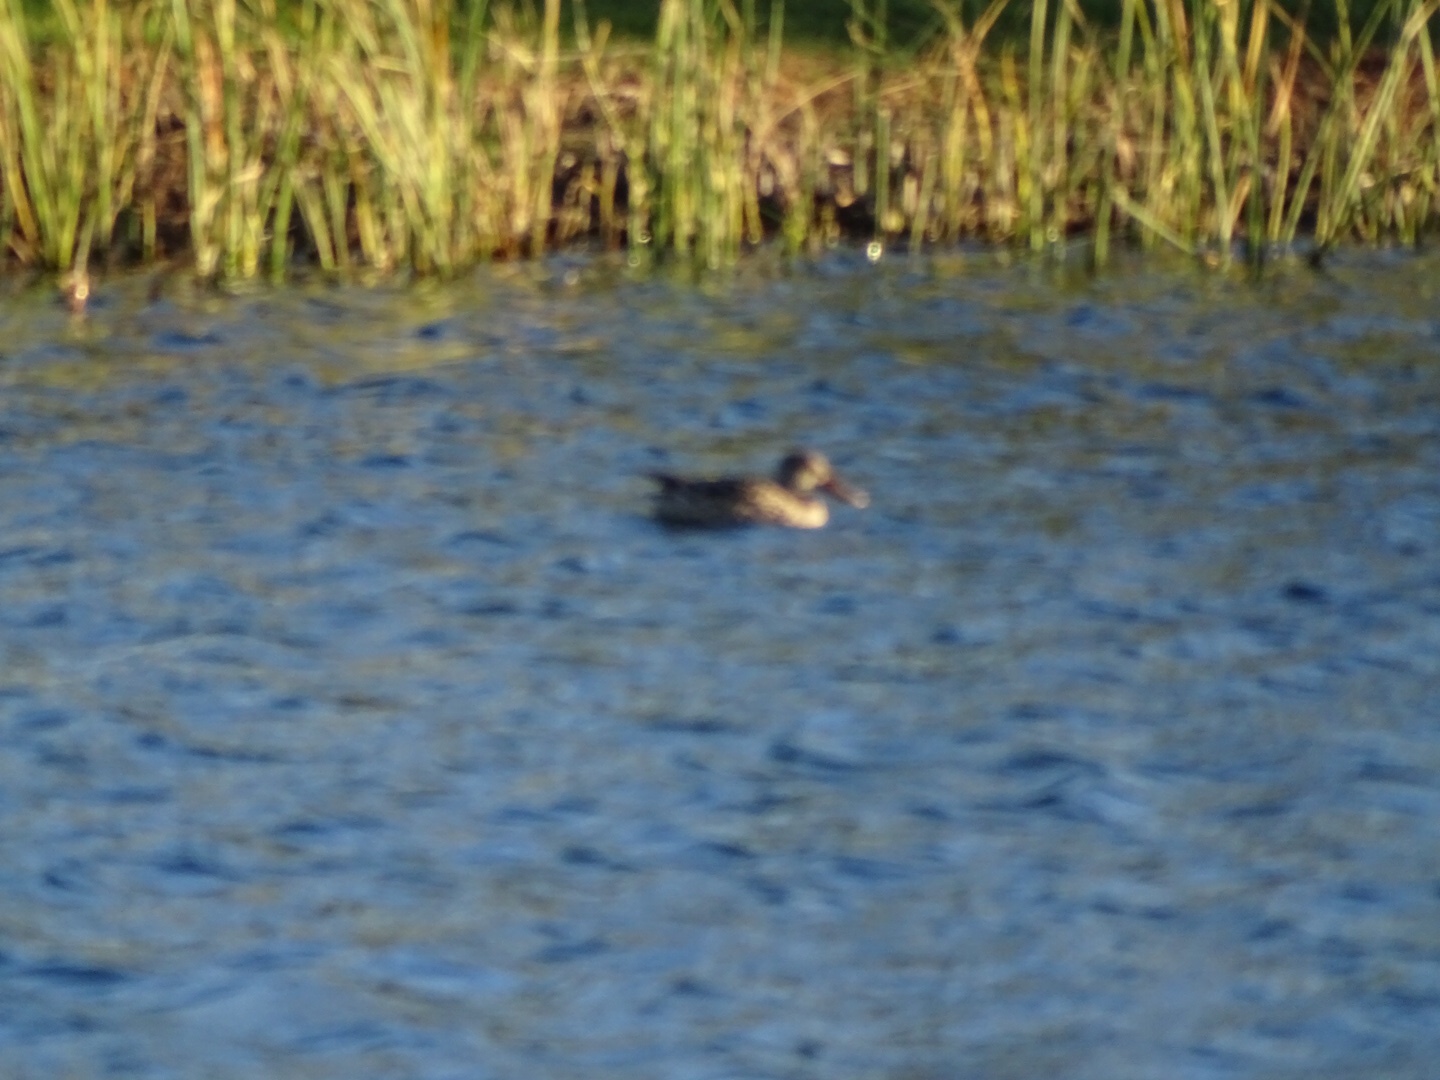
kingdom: Animalia
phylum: Chordata
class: Aves
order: Anseriformes
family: Anatidae
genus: Spatula
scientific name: Spatula clypeata
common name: Northern shoveler
